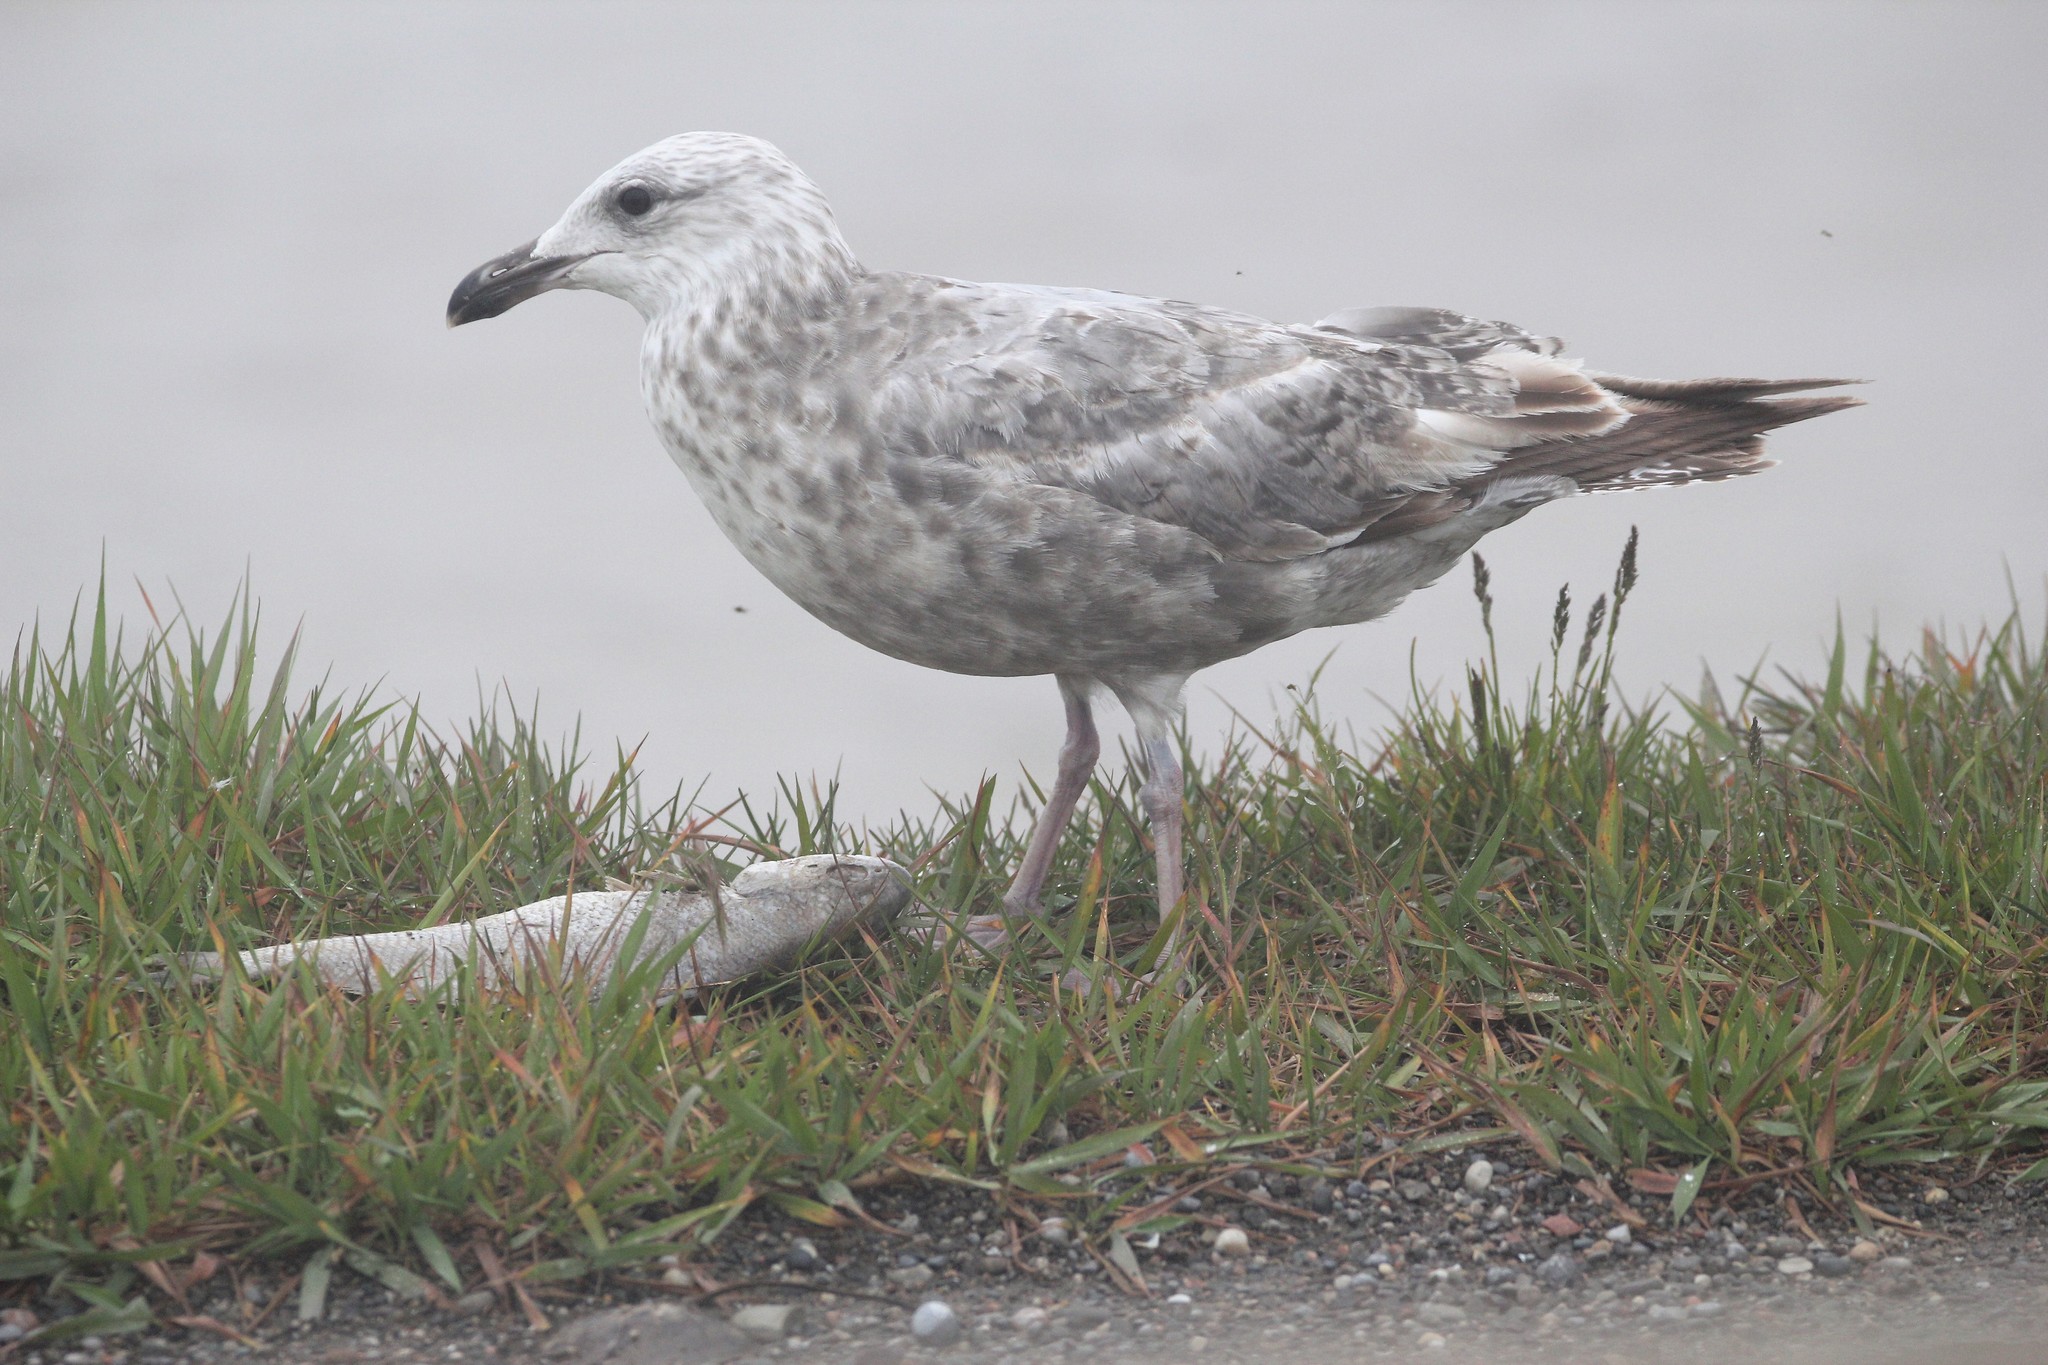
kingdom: Animalia
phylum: Chordata
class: Aves
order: Charadriiformes
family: Laridae
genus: Larus
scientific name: Larus argentatus
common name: Herring gull
